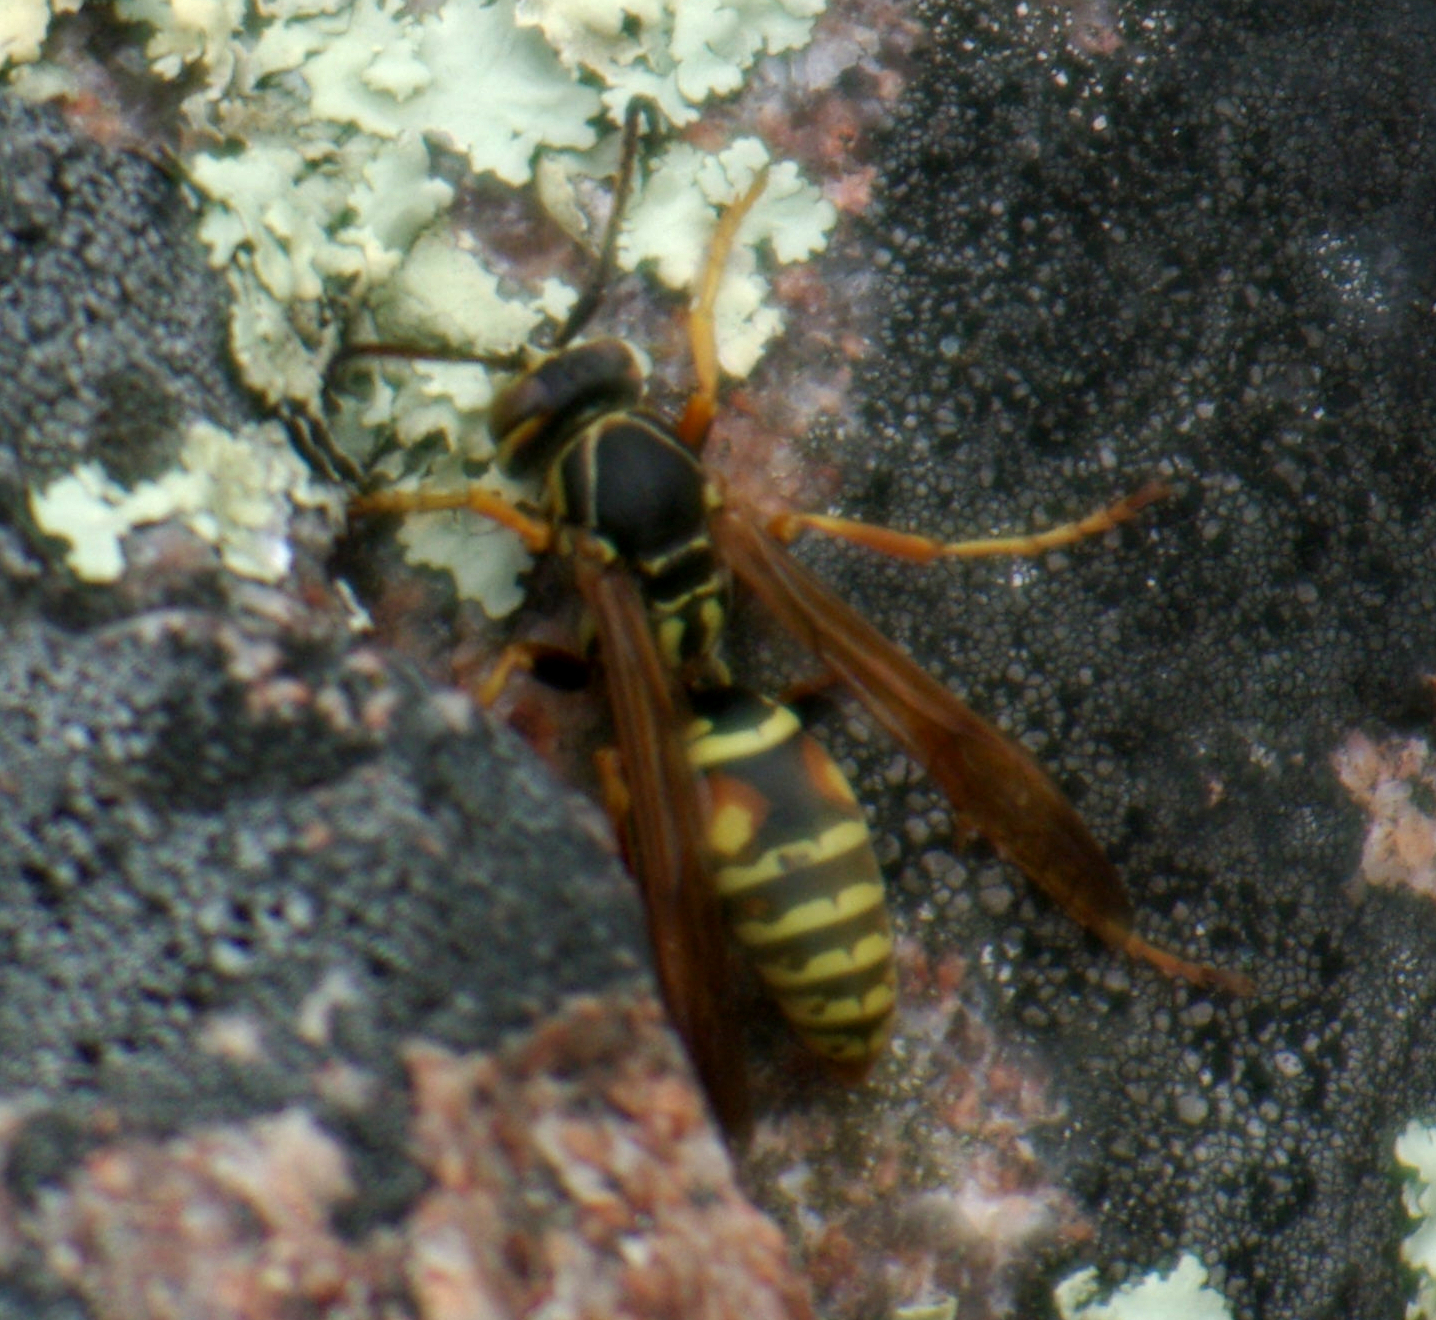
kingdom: Animalia
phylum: Arthropoda
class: Insecta
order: Hymenoptera
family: Eumenidae
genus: Polistes
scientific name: Polistes fuscatus
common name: Dark paper wasp
